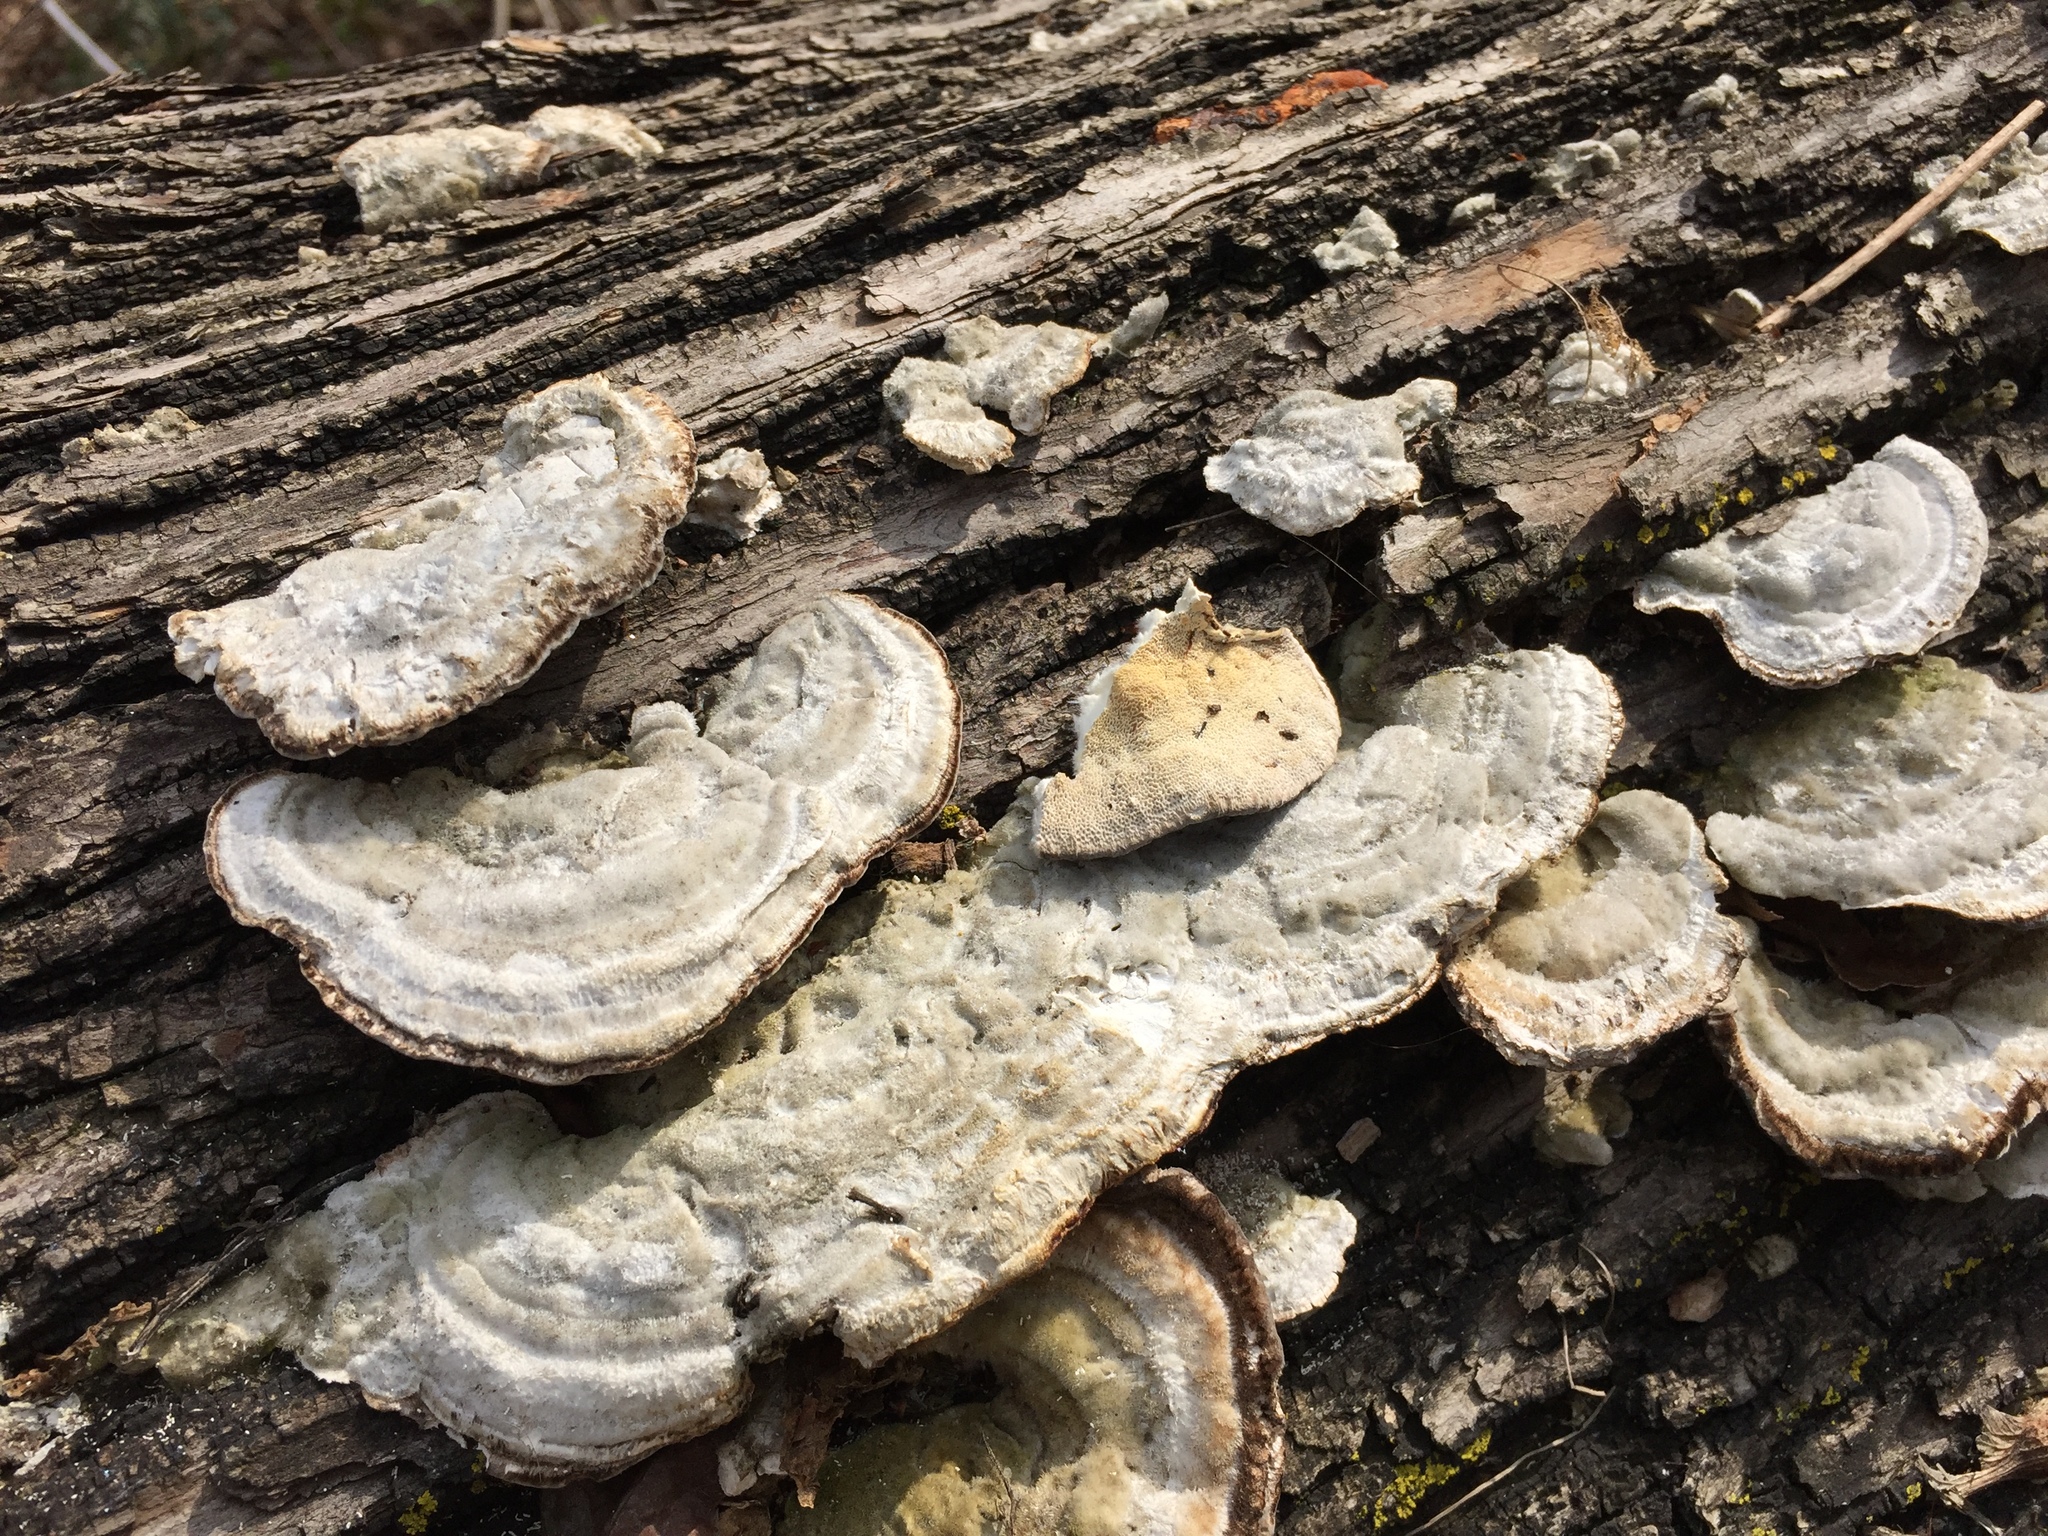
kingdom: Fungi
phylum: Basidiomycota
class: Agaricomycetes
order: Polyporales
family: Polyporaceae
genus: Trametes
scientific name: Trametes hirsuta
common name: Hairy bracket
